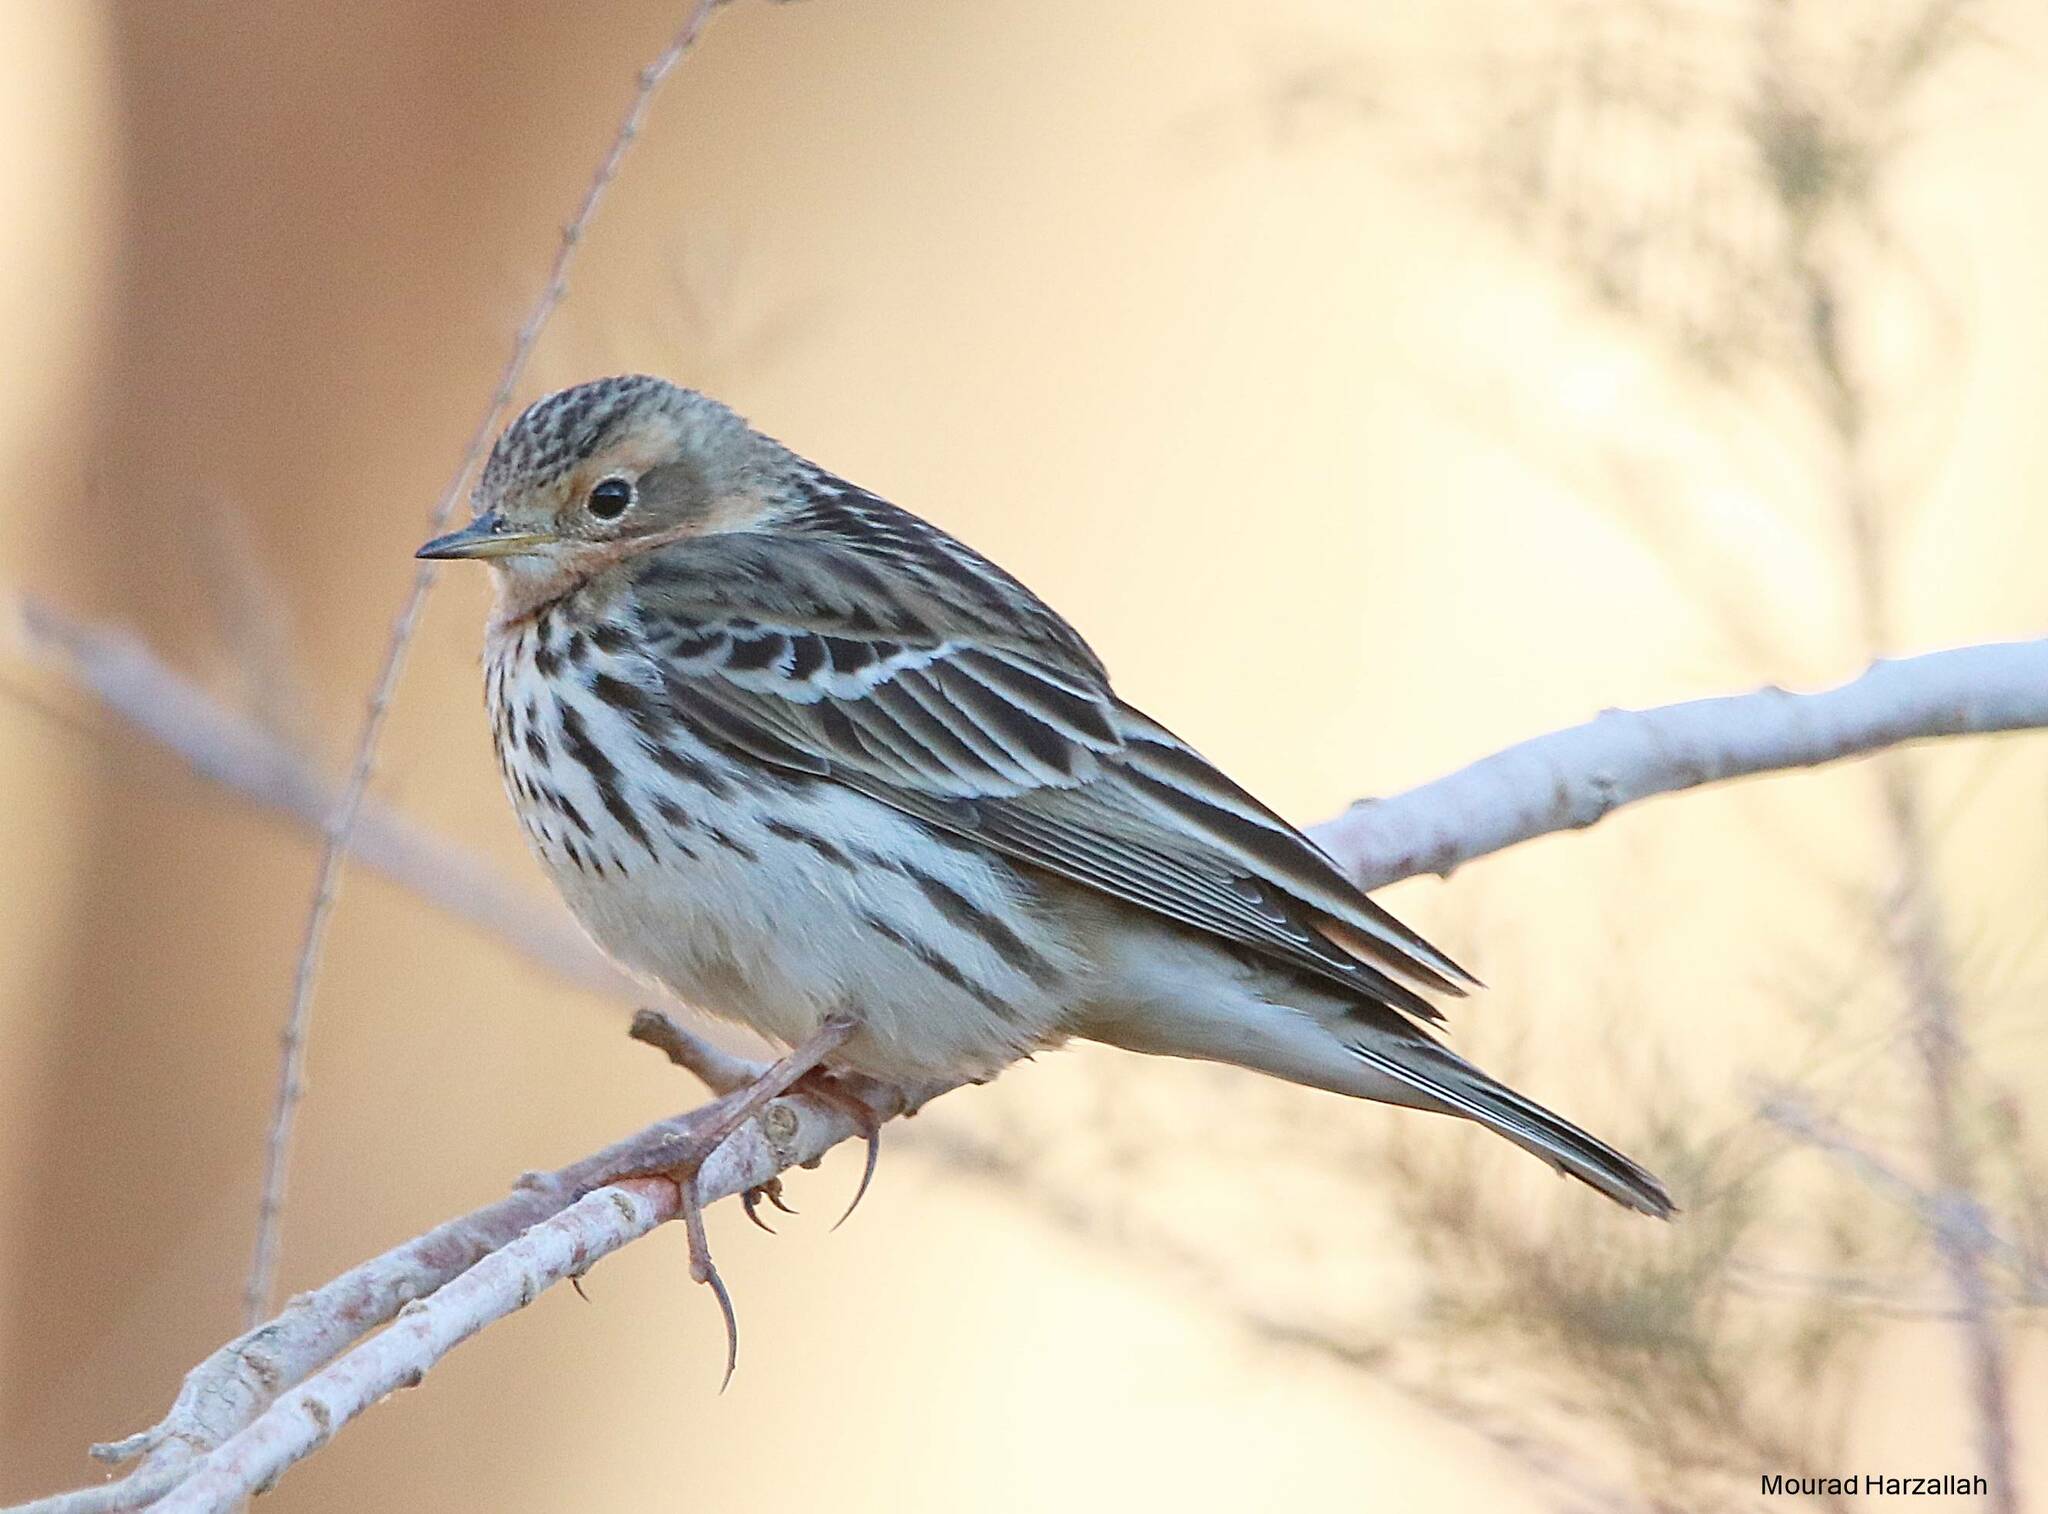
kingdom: Animalia
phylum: Chordata
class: Aves
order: Passeriformes
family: Motacillidae
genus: Anthus
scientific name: Anthus cervinus
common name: Red-throated pipit
